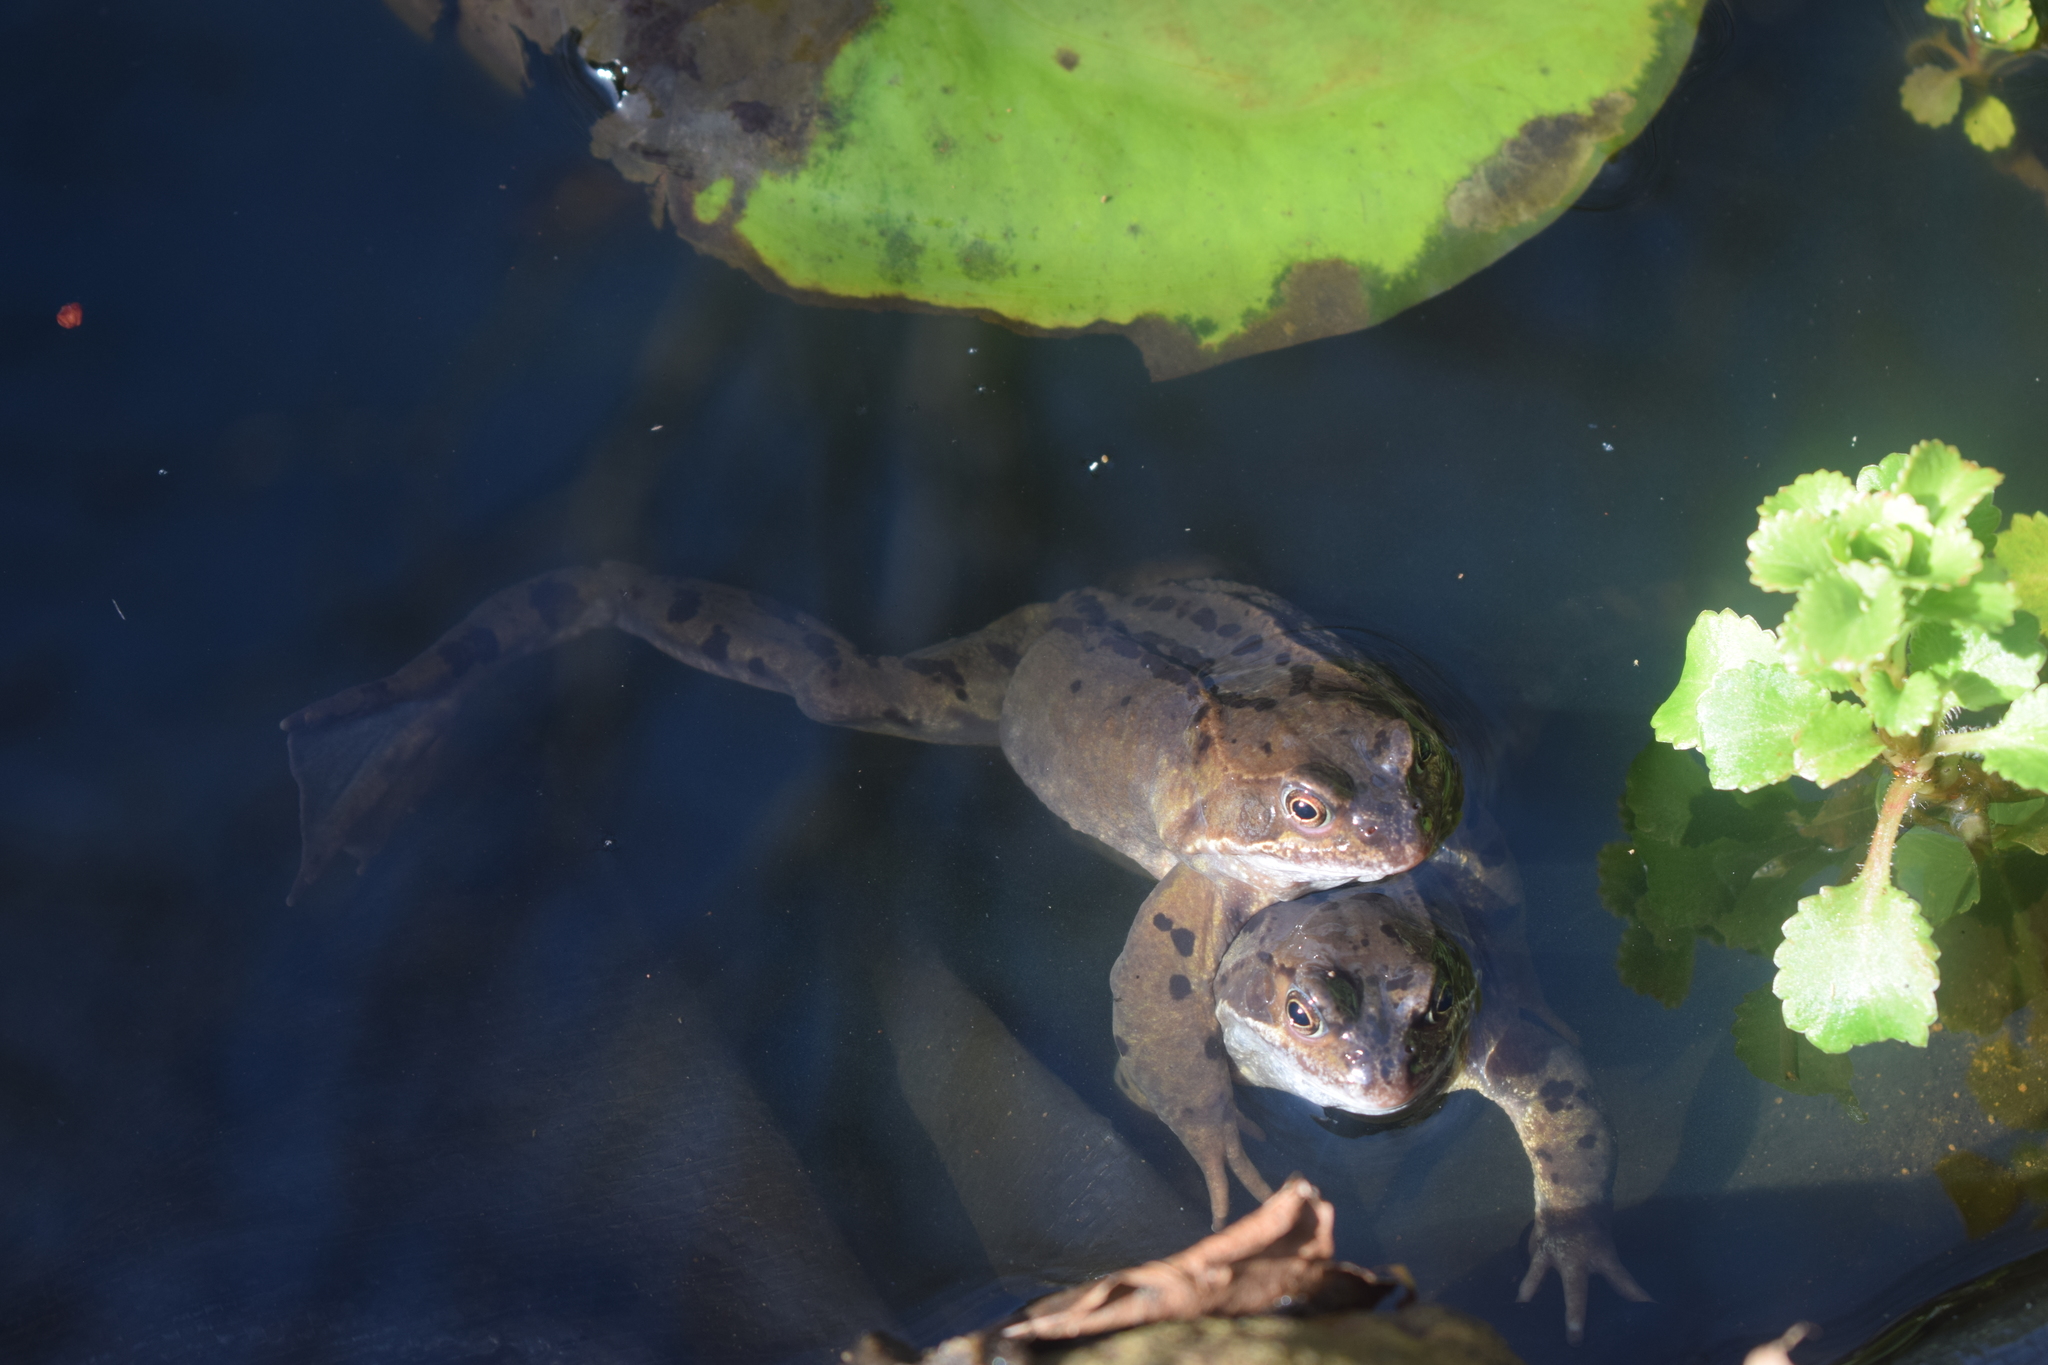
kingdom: Animalia
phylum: Chordata
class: Amphibia
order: Anura
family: Ranidae
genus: Rana
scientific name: Rana temporaria
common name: Common frog
